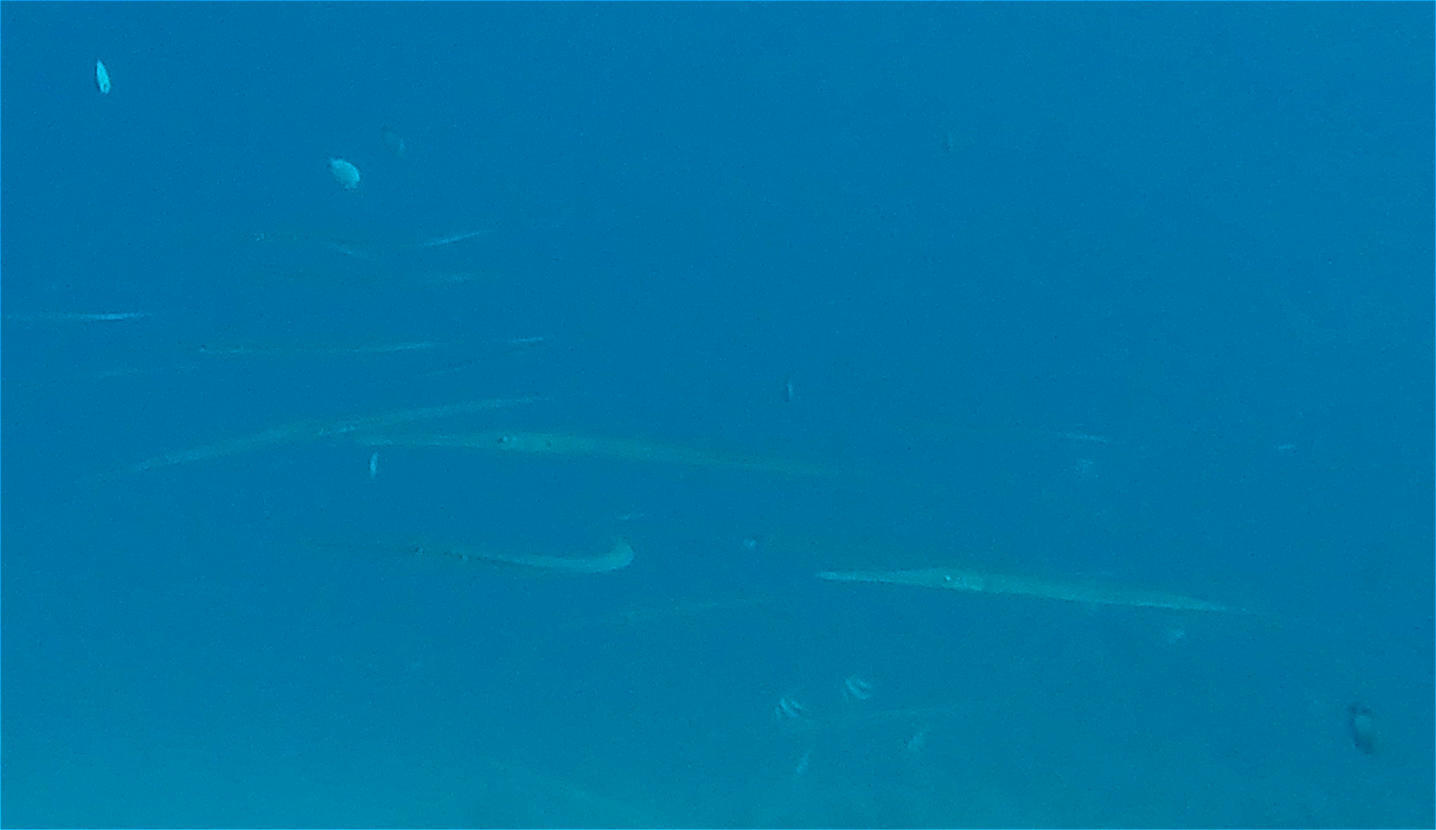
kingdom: Animalia
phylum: Chordata
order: Syngnathiformes
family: Fistulariidae
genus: Fistularia
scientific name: Fistularia commersonii
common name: Bluespotted cornetfish
